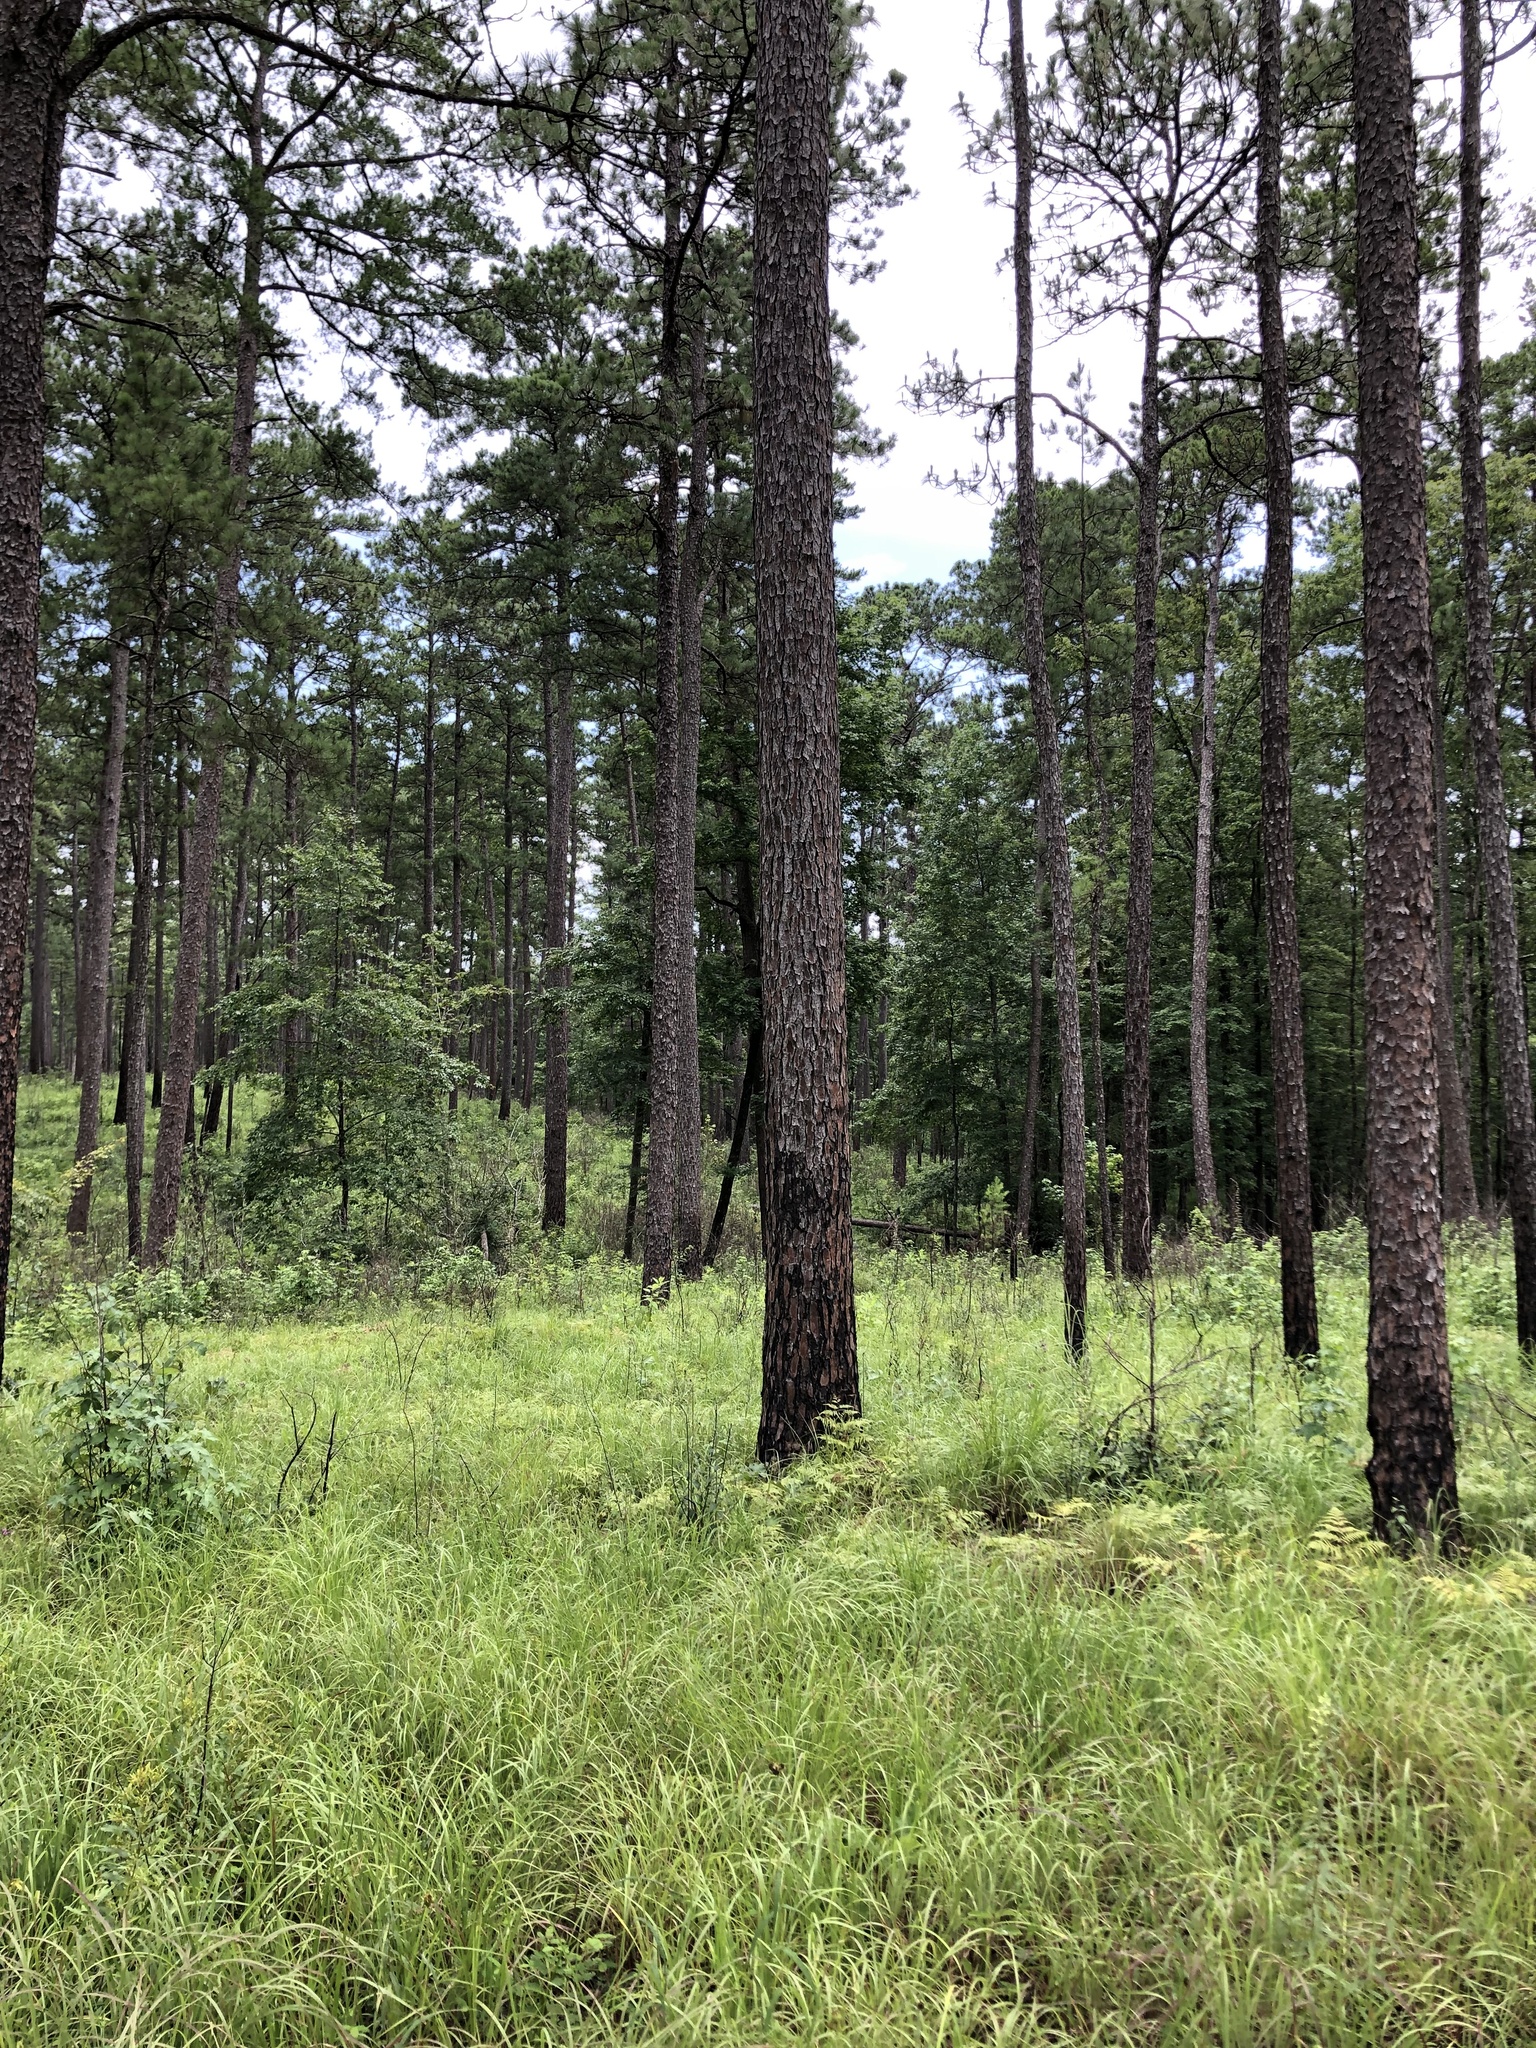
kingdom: Plantae
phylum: Tracheophyta
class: Magnoliopsida
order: Asterales
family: Asteraceae
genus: Vernonia
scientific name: Vernonia texana
